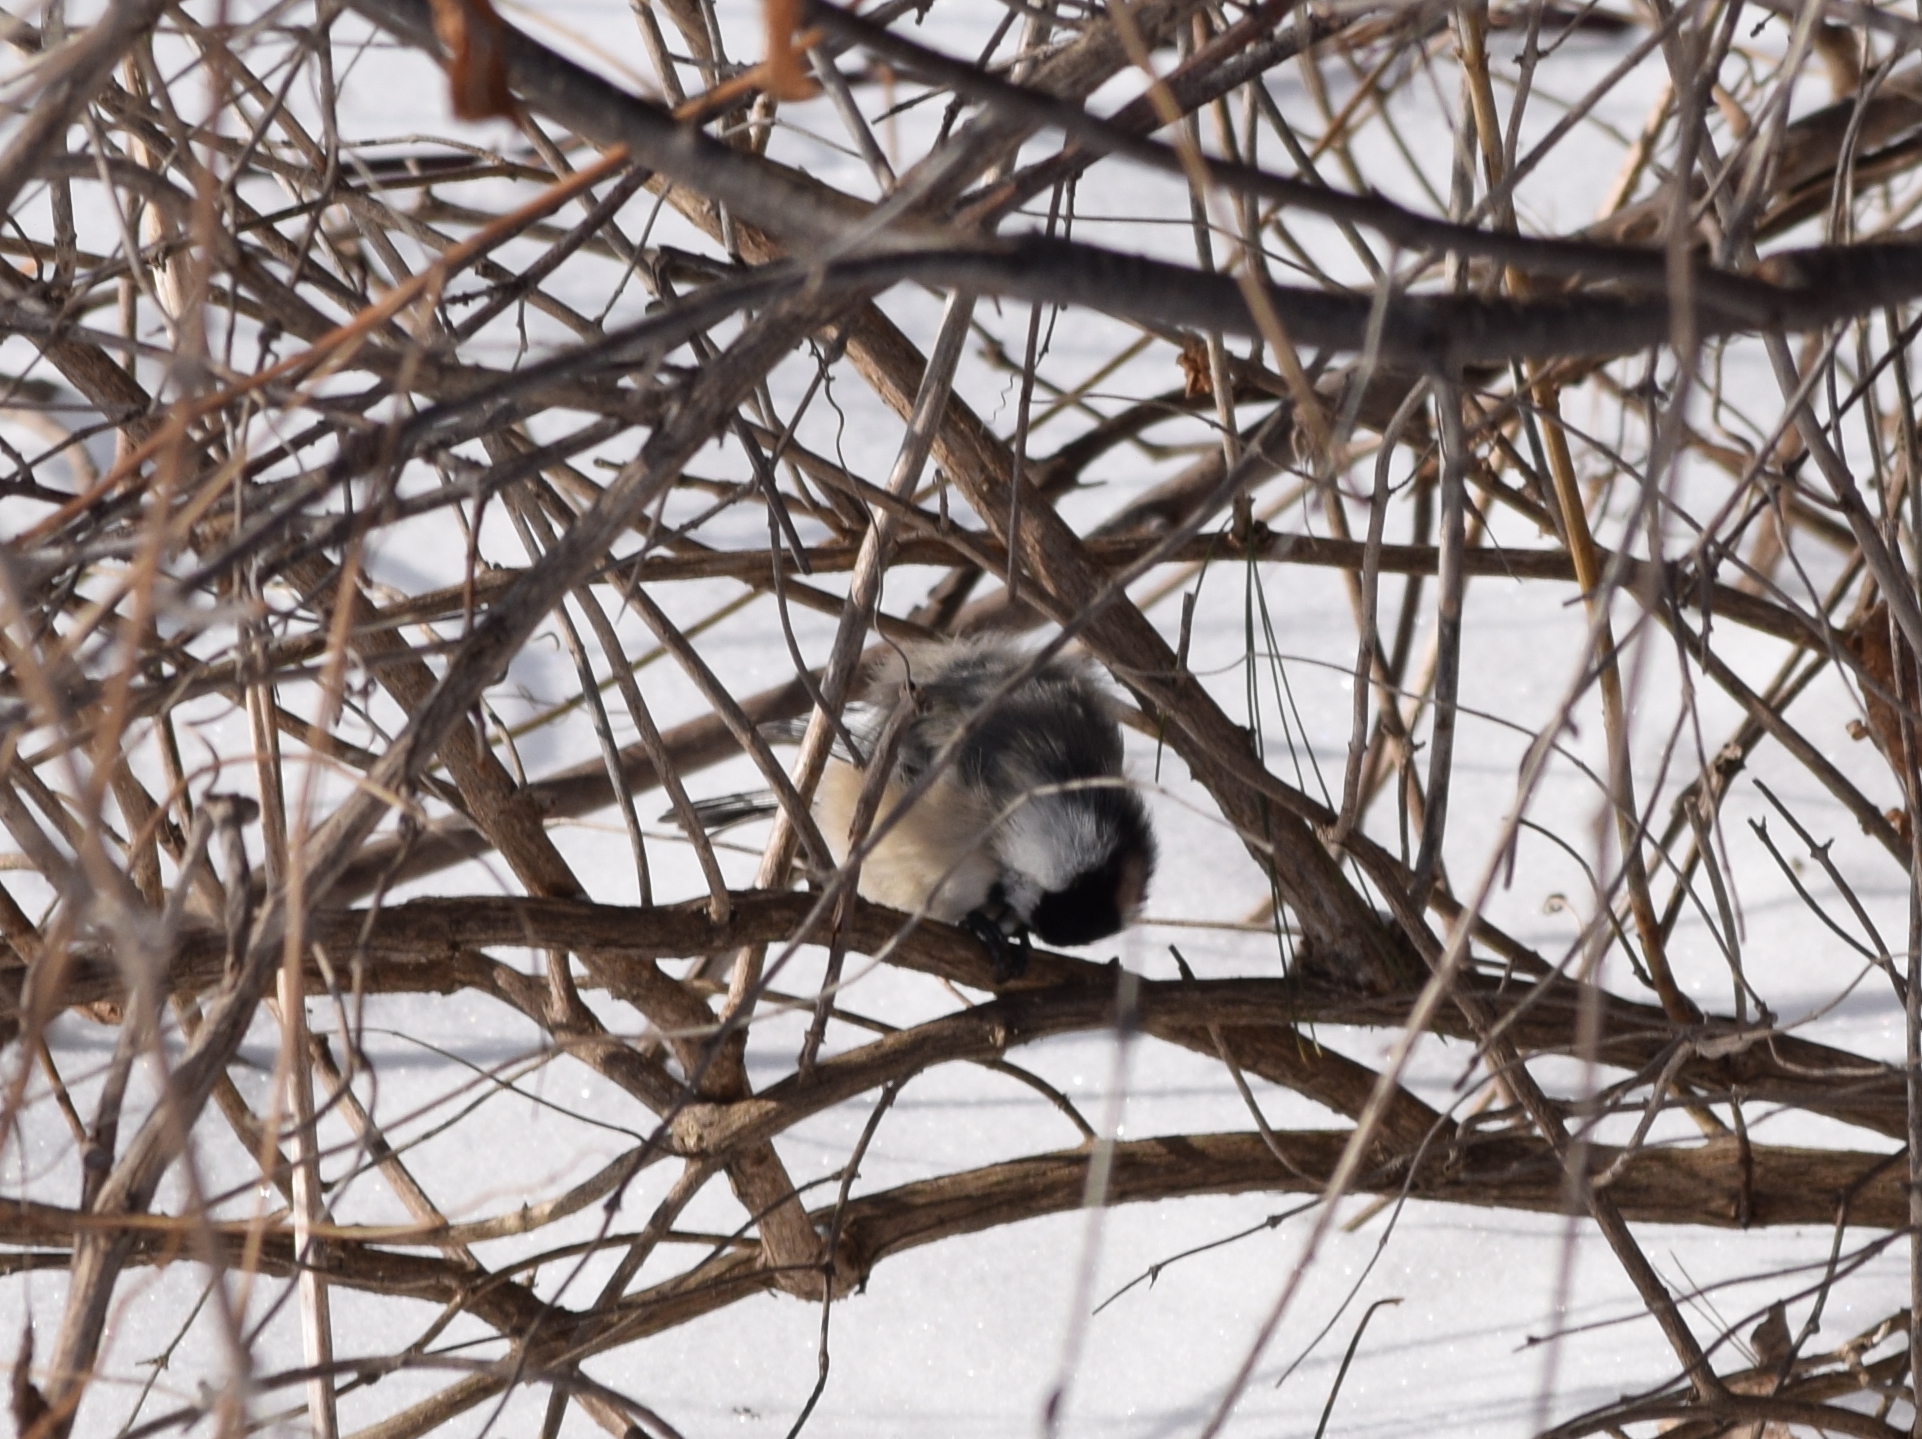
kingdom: Animalia
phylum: Chordata
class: Aves
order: Passeriformes
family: Paridae
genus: Poecile
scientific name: Poecile atricapillus
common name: Black-capped chickadee
